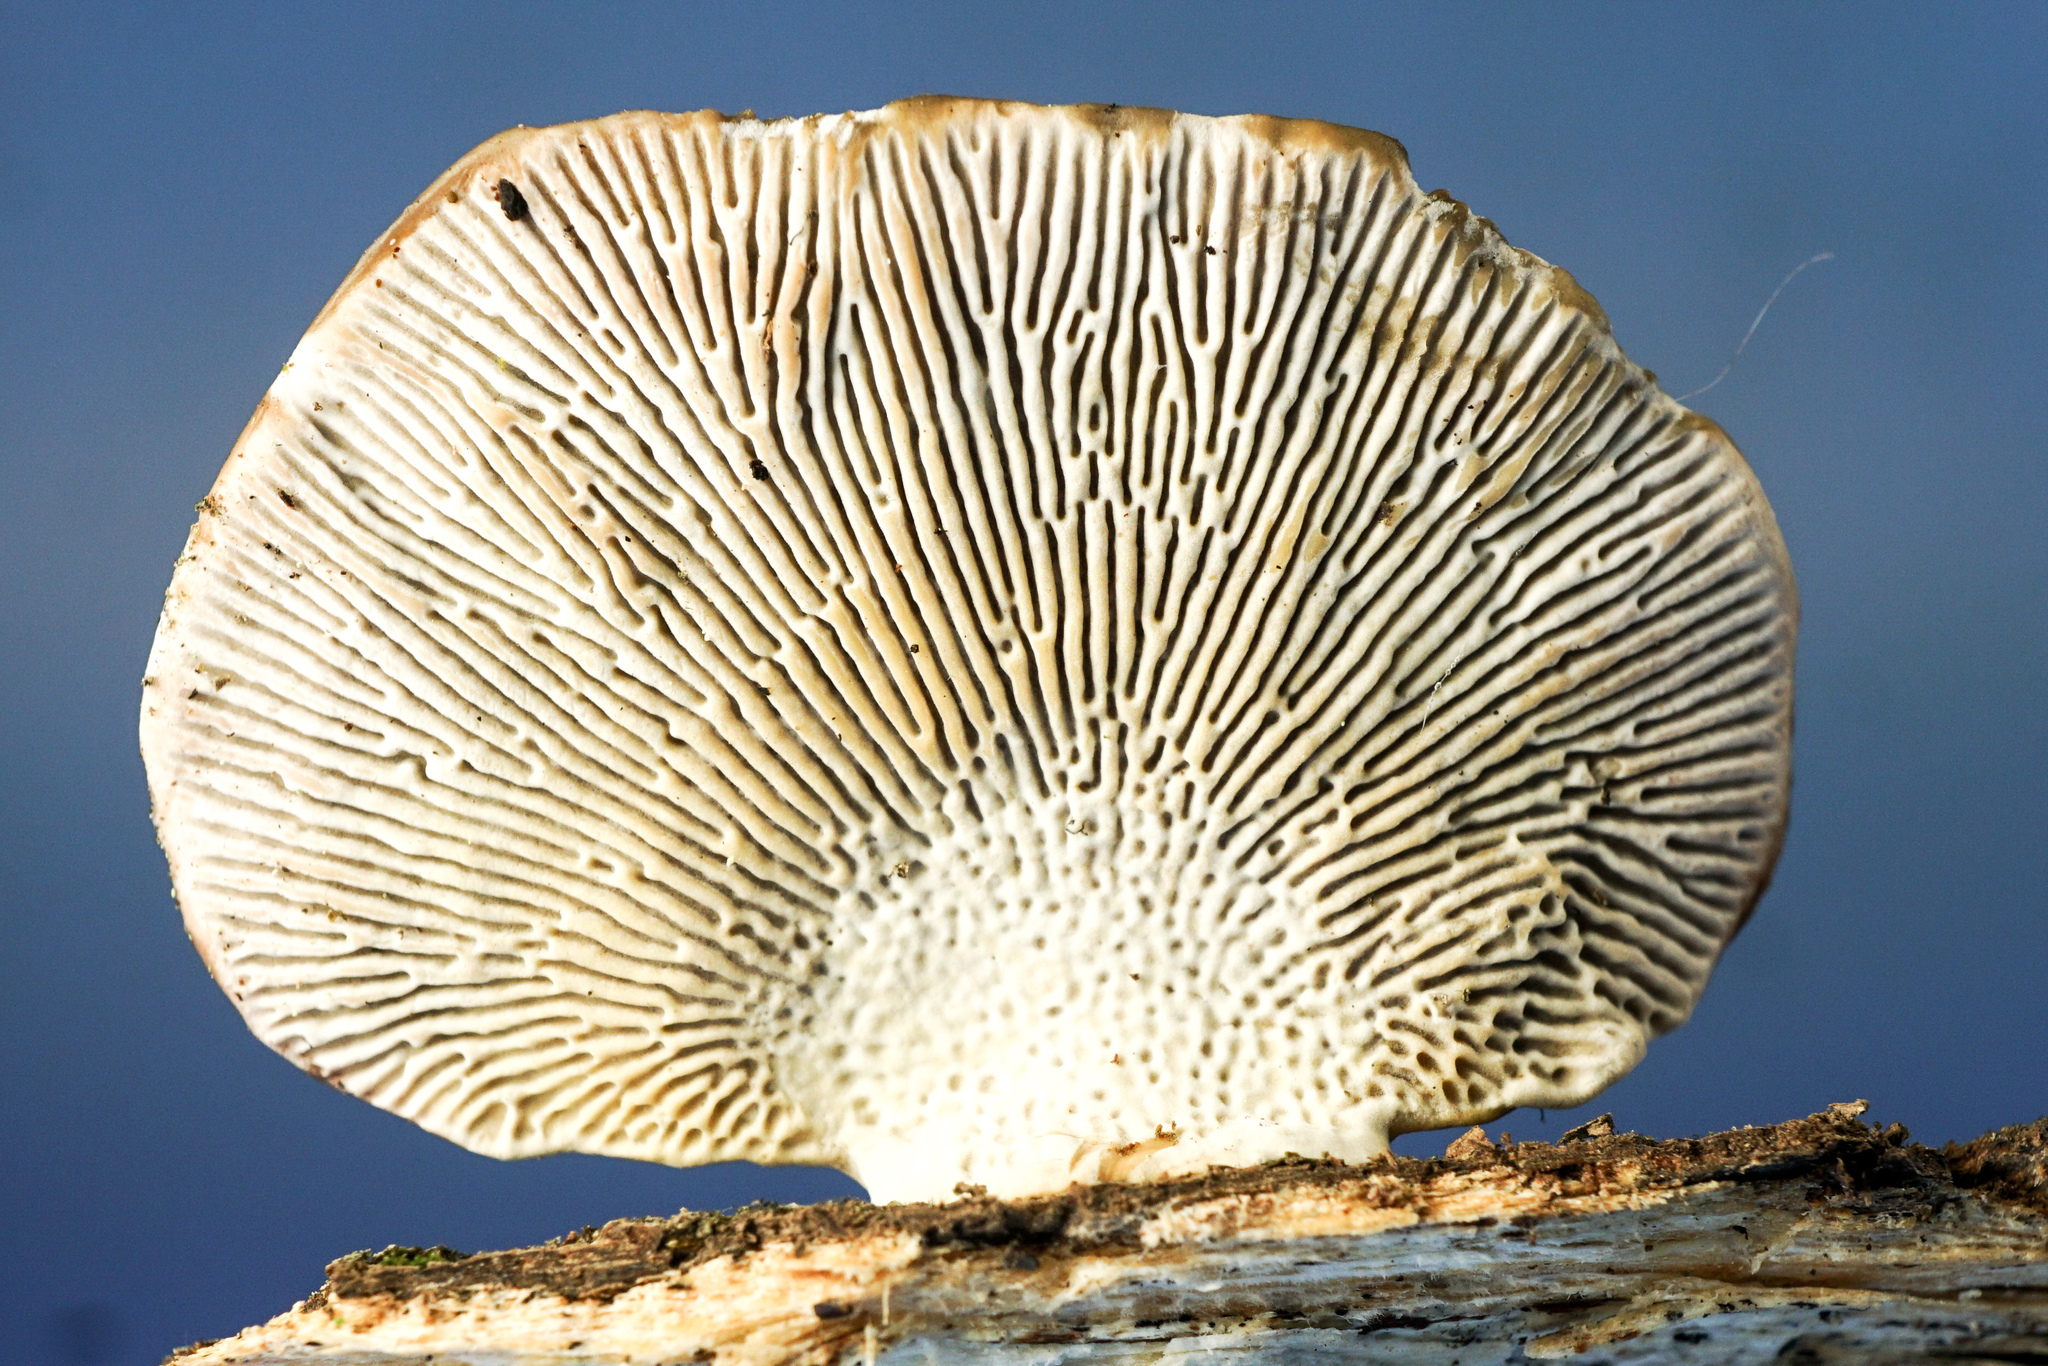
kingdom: Fungi
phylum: Basidiomycota
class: Agaricomycetes
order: Polyporales
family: Polyporaceae
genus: Daedaleopsis
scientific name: Daedaleopsis confragosa
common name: Blushing bracket
